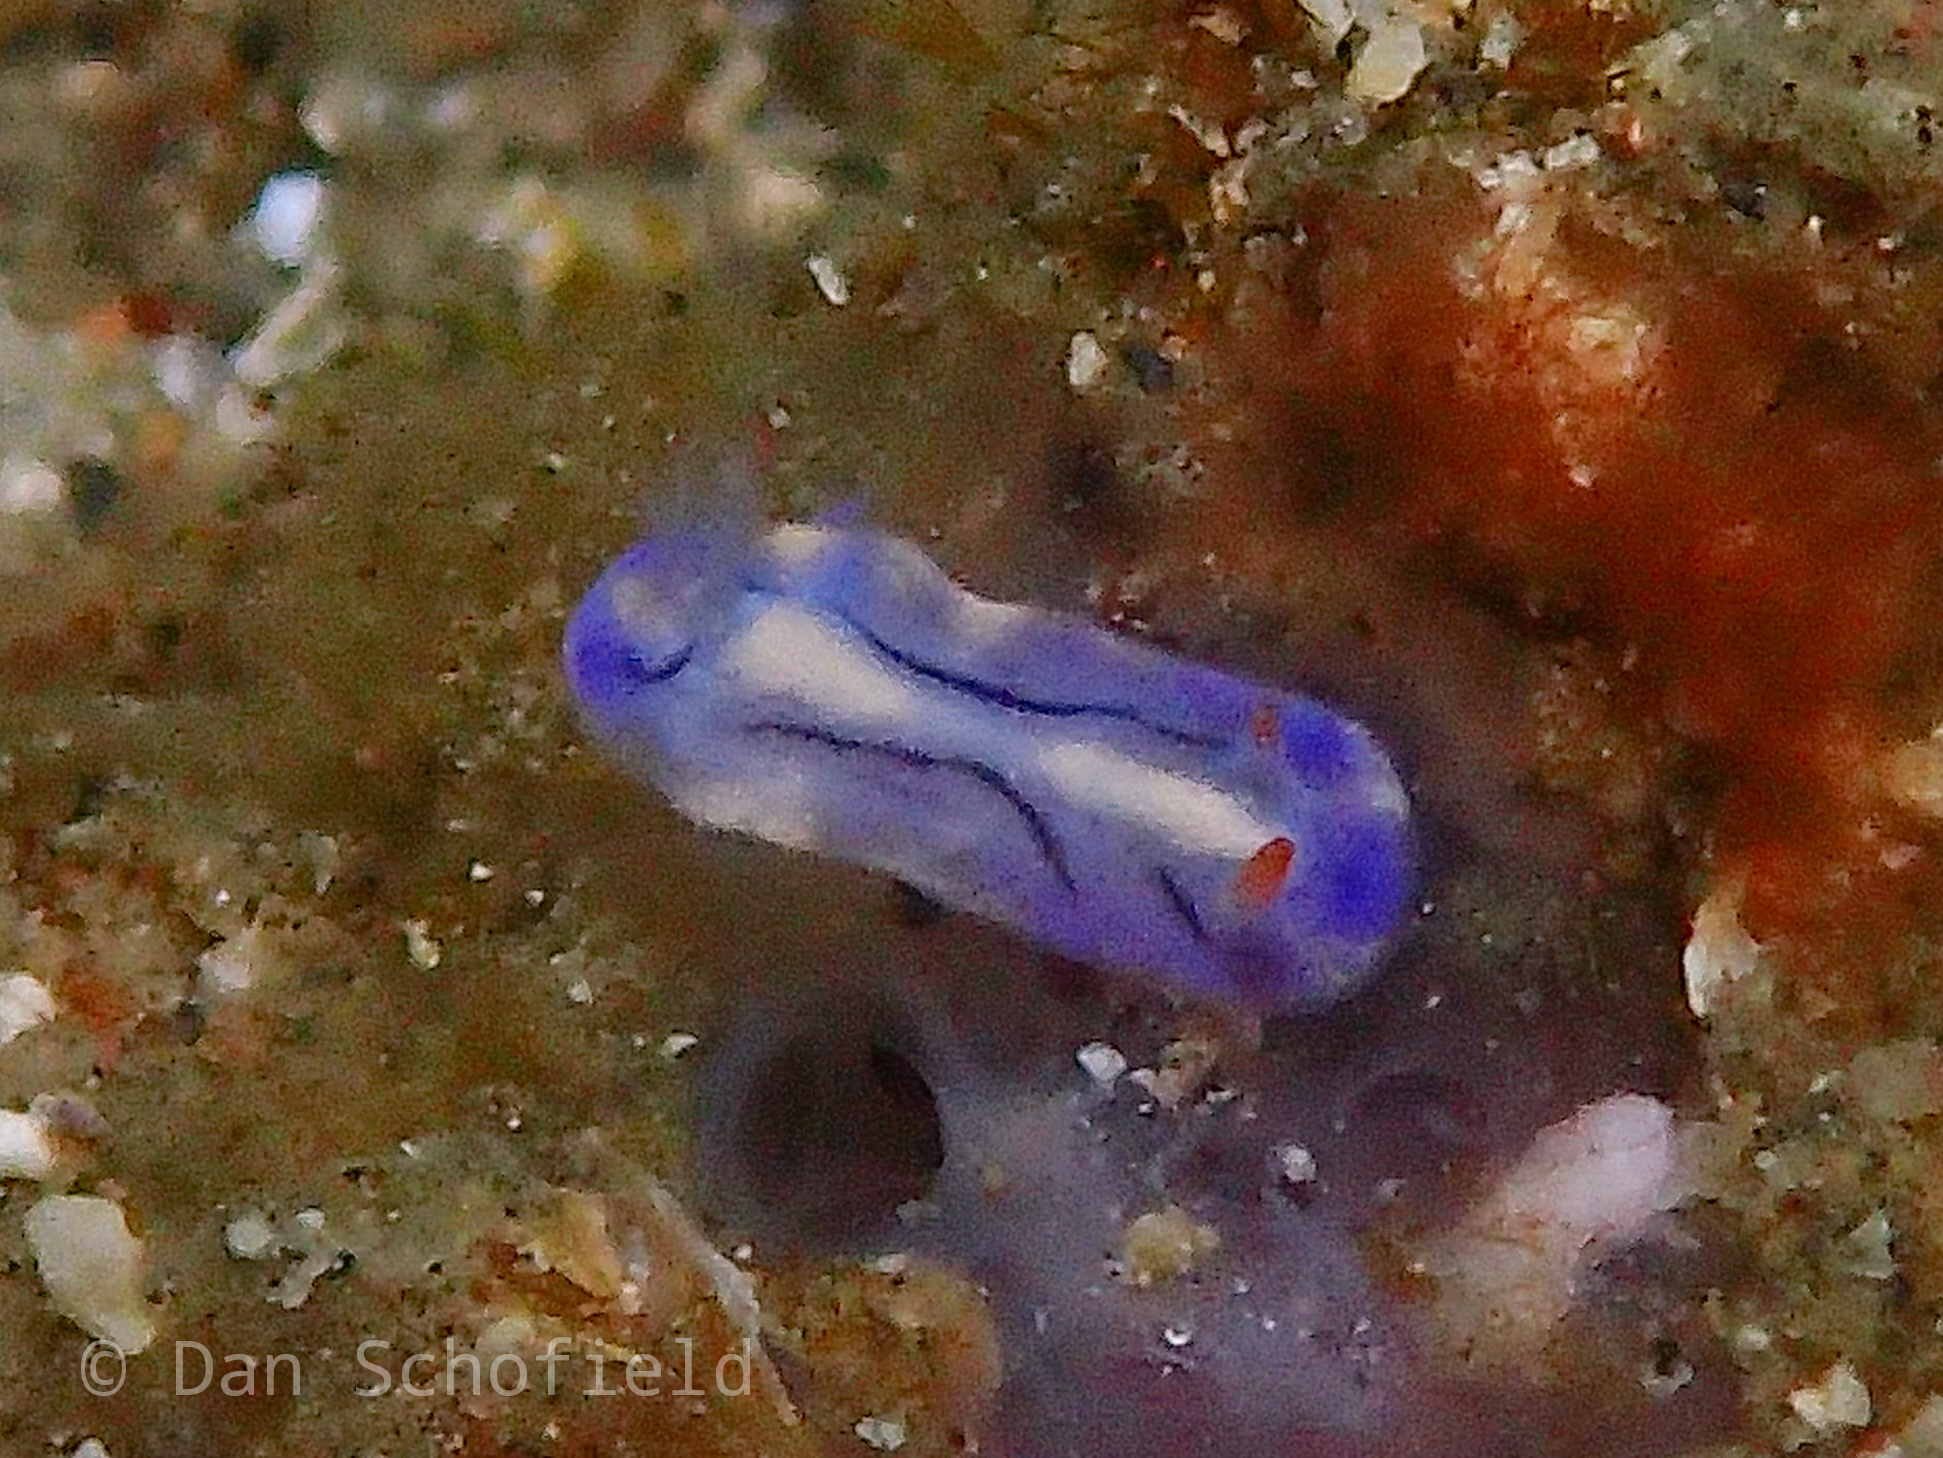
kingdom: Animalia
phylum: Mollusca
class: Gastropoda
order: Nudibranchia
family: Chromodorididae
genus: Hypselodoris
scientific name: Hypselodoris zephyra
